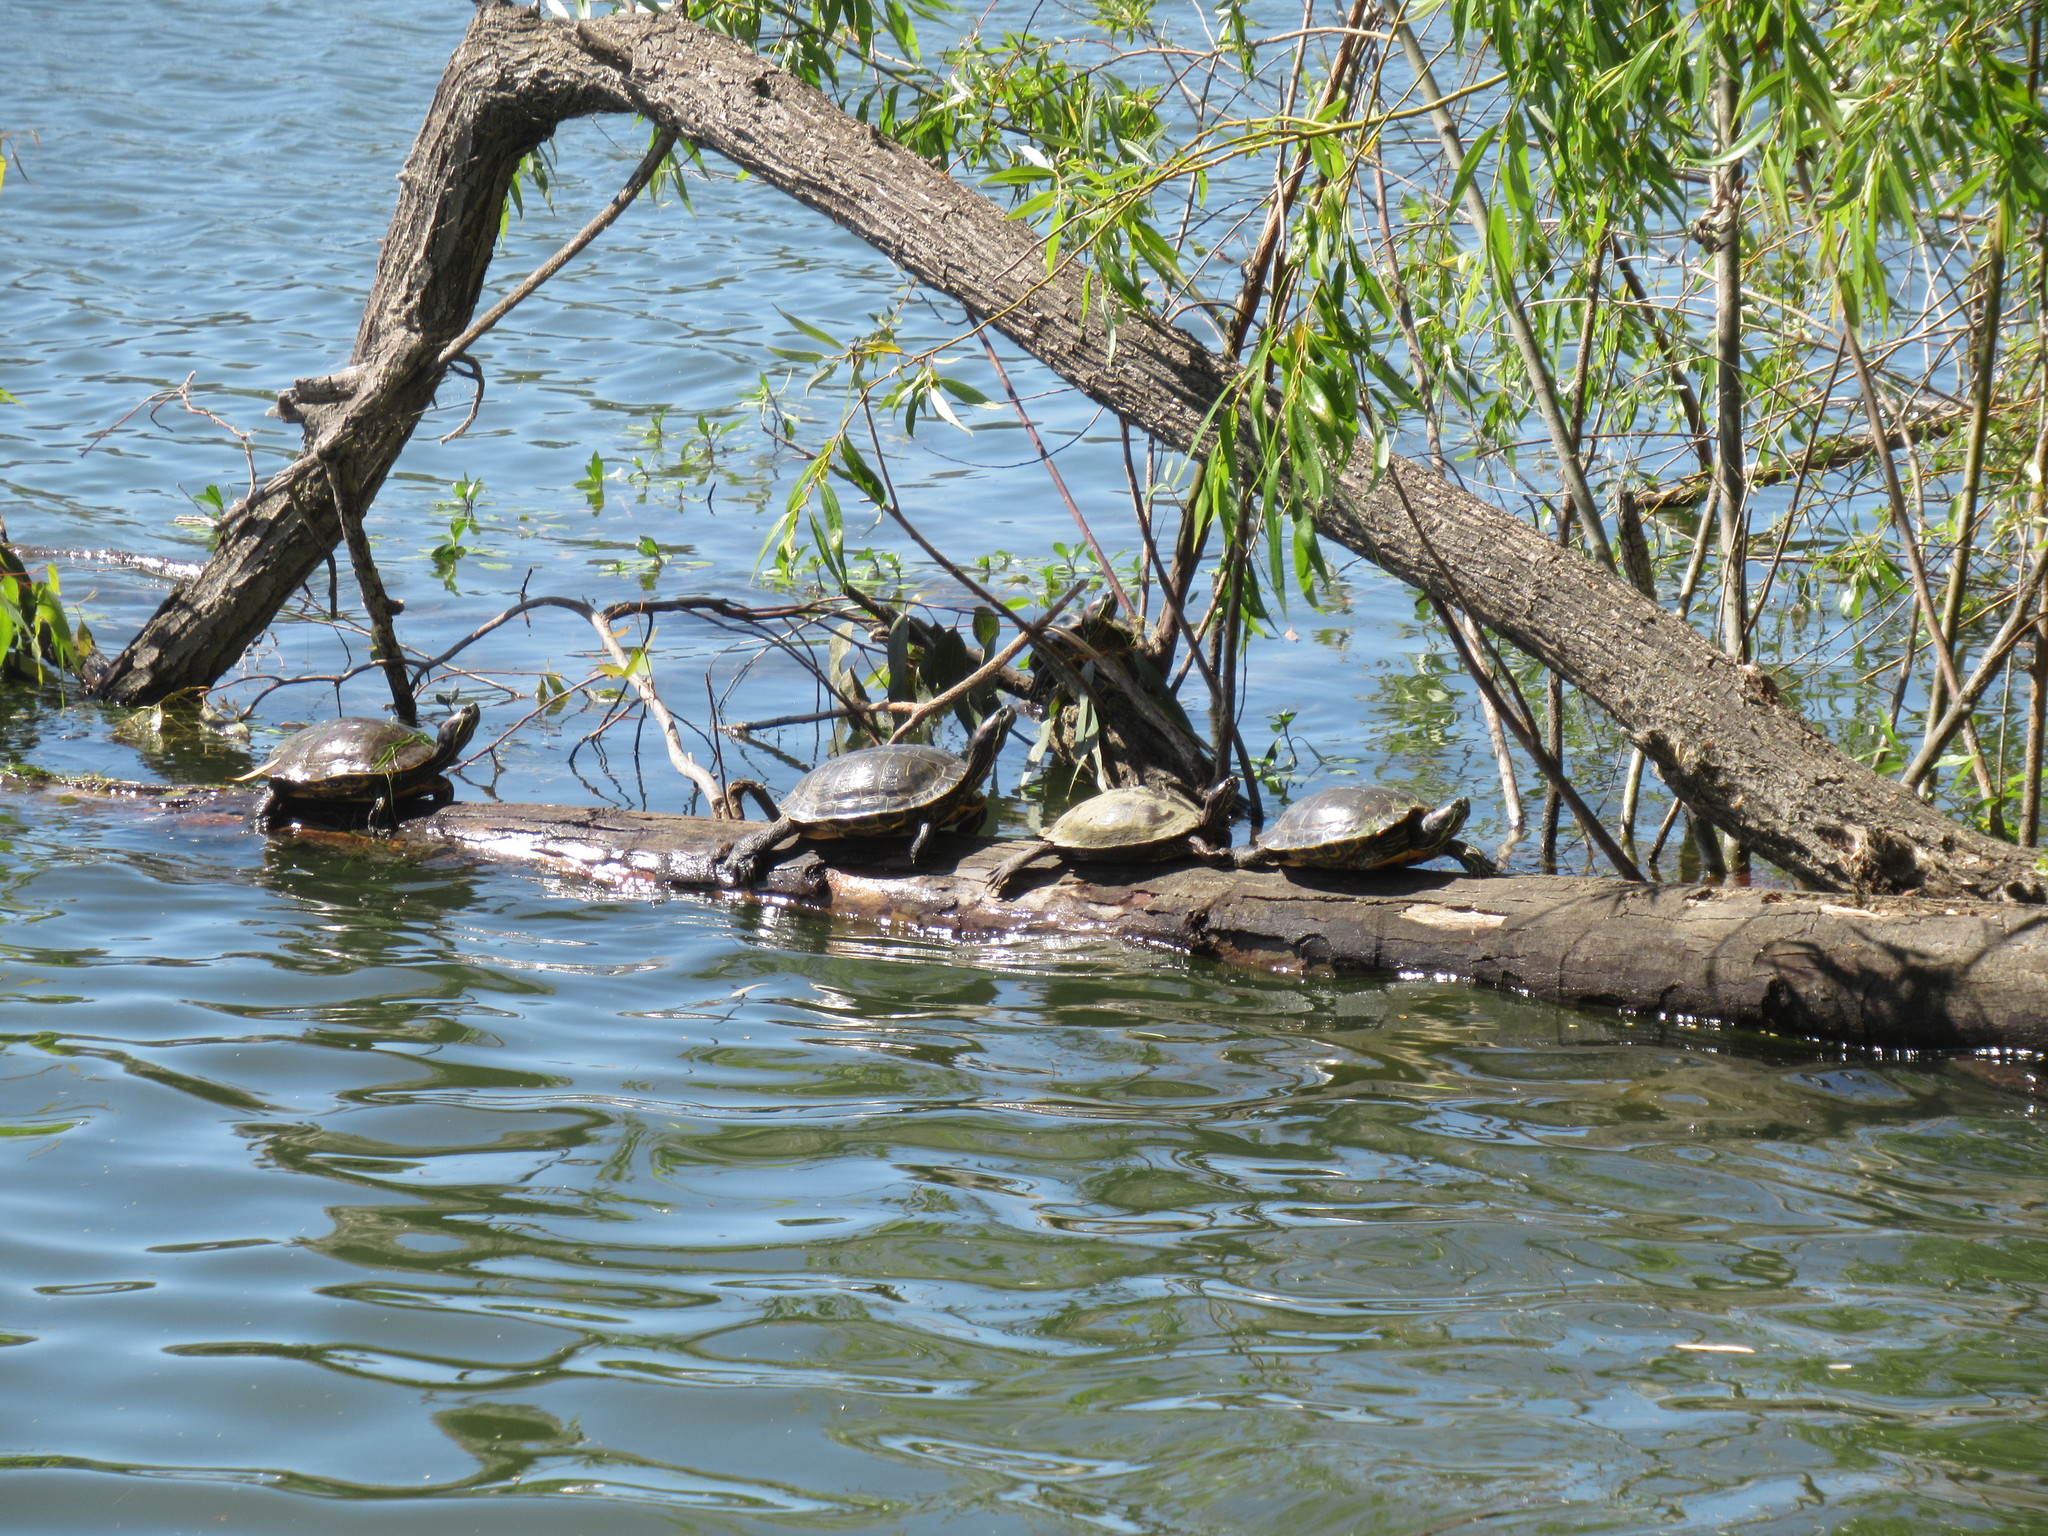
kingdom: Animalia
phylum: Chordata
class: Testudines
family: Emydidae
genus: Trachemys
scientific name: Trachemys scripta
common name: Slider
